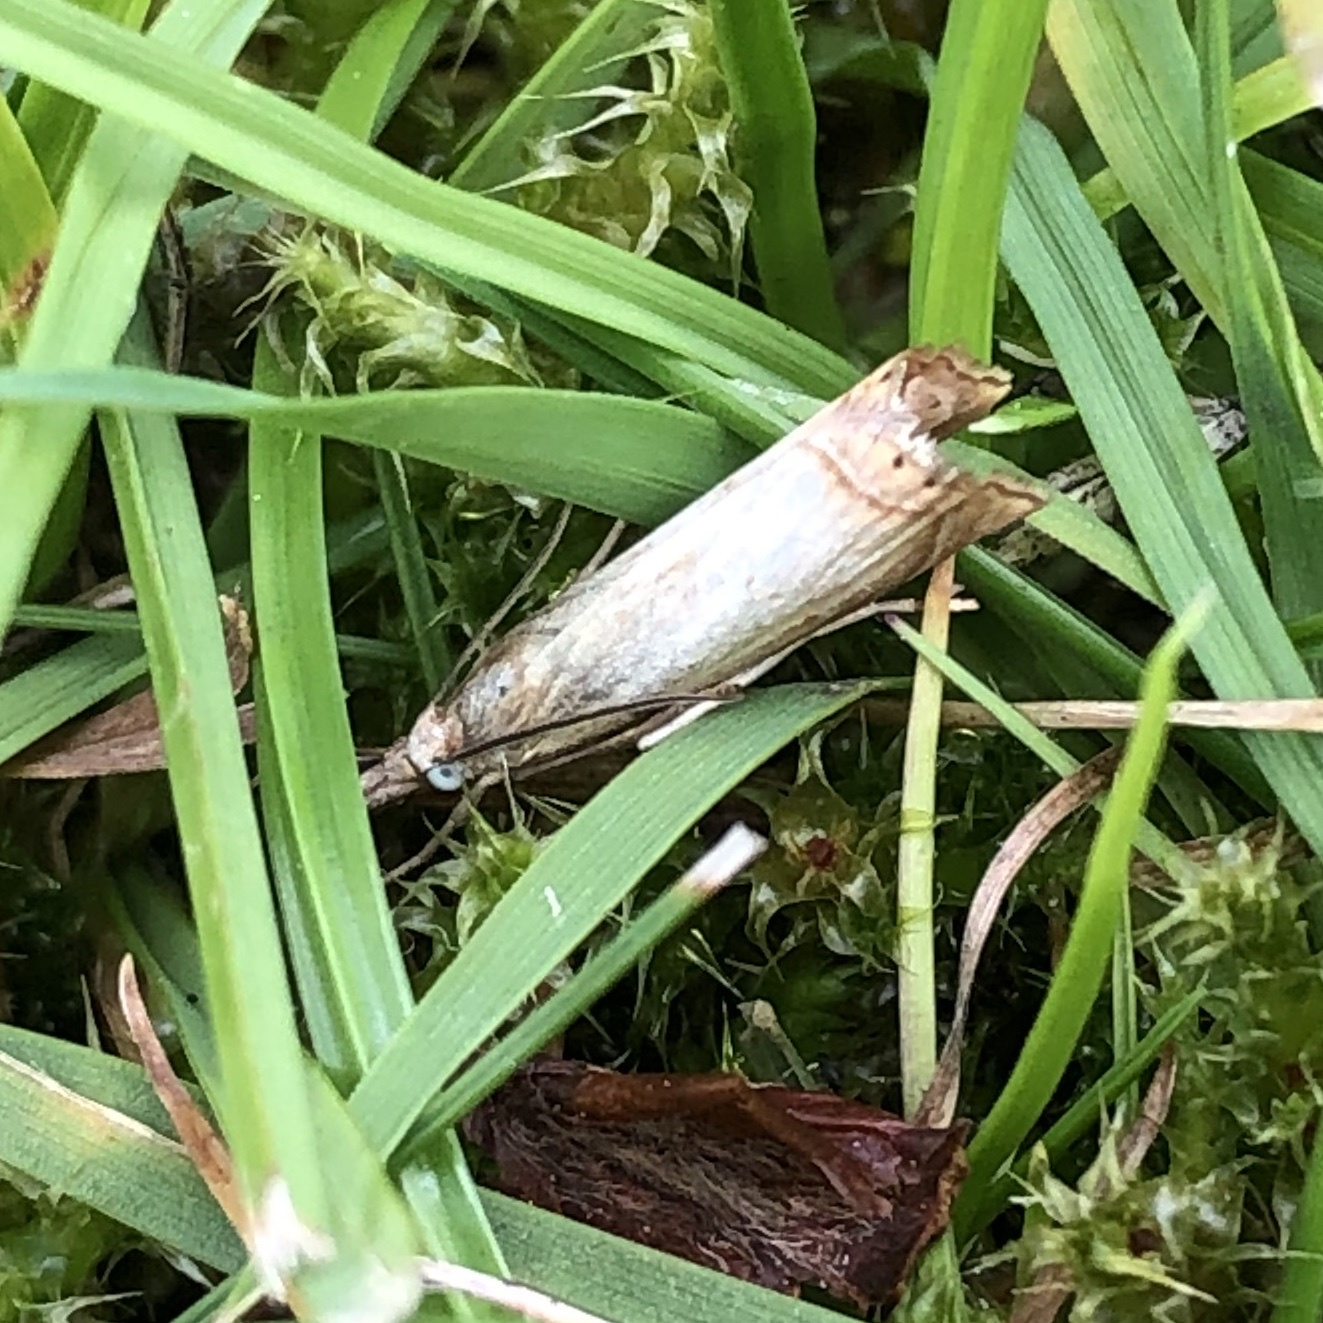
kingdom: Animalia
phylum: Arthropoda
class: Insecta
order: Lepidoptera
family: Crambidae
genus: Chrysoteuchia
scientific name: Chrysoteuchia culmella
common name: Garden grass-veneer
